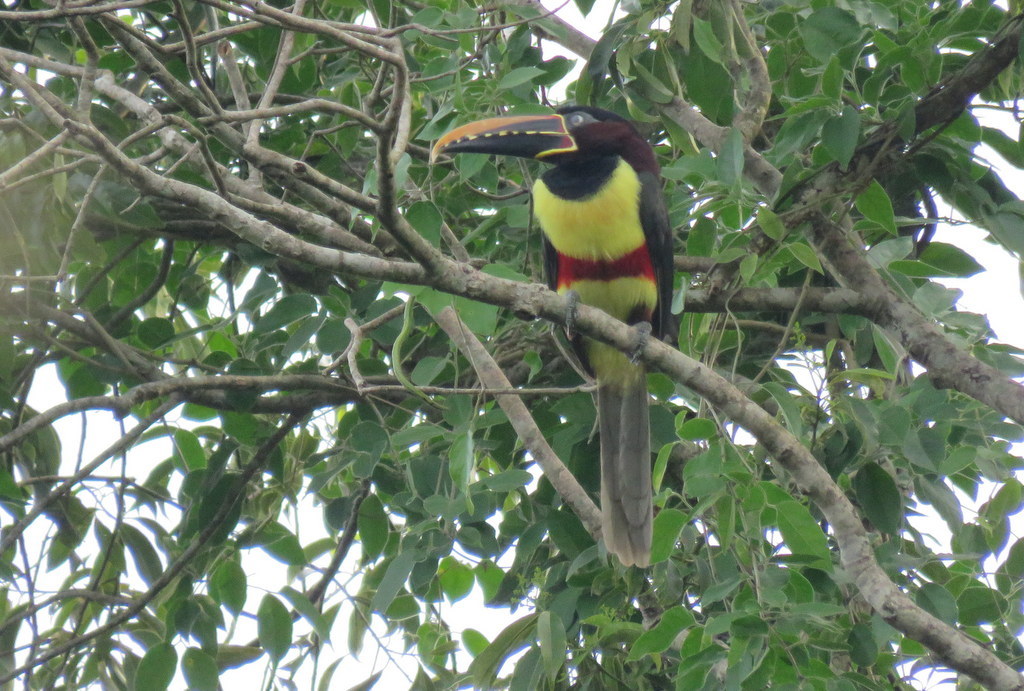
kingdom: Animalia
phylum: Chordata
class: Aves
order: Piciformes
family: Ramphastidae
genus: Pteroglossus
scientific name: Pteroglossus castanotis
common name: Chestnut-eared aracari
